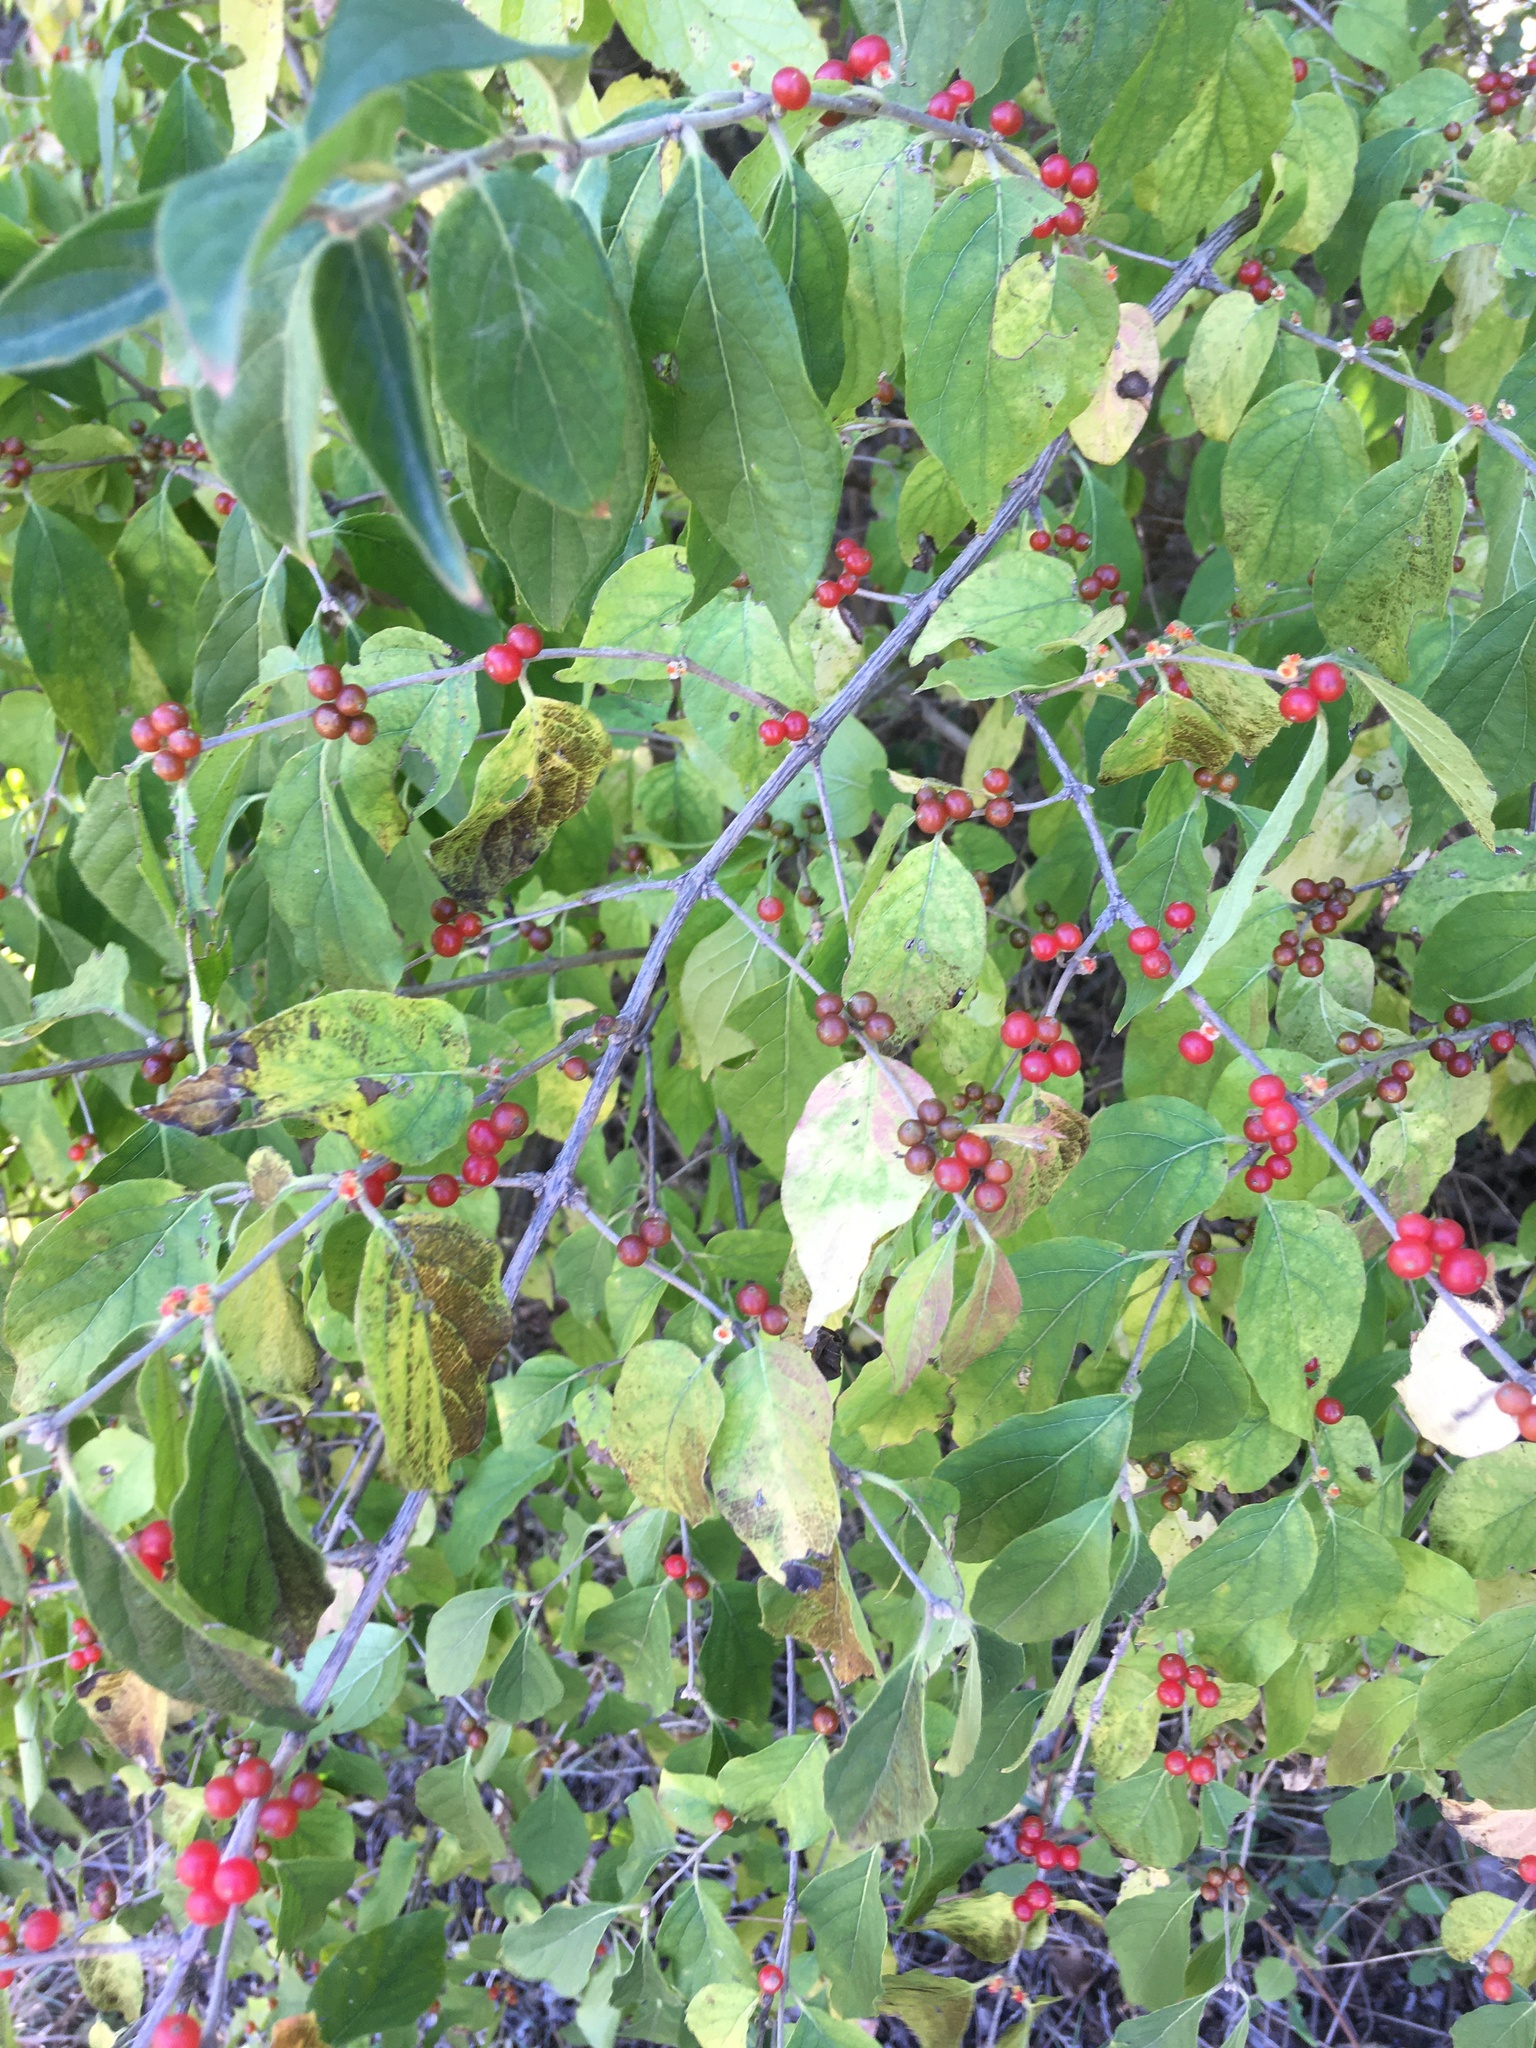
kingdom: Plantae
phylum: Tracheophyta
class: Magnoliopsida
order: Dipsacales
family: Caprifoliaceae
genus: Lonicera
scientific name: Lonicera maackii
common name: Amur honeysuckle
